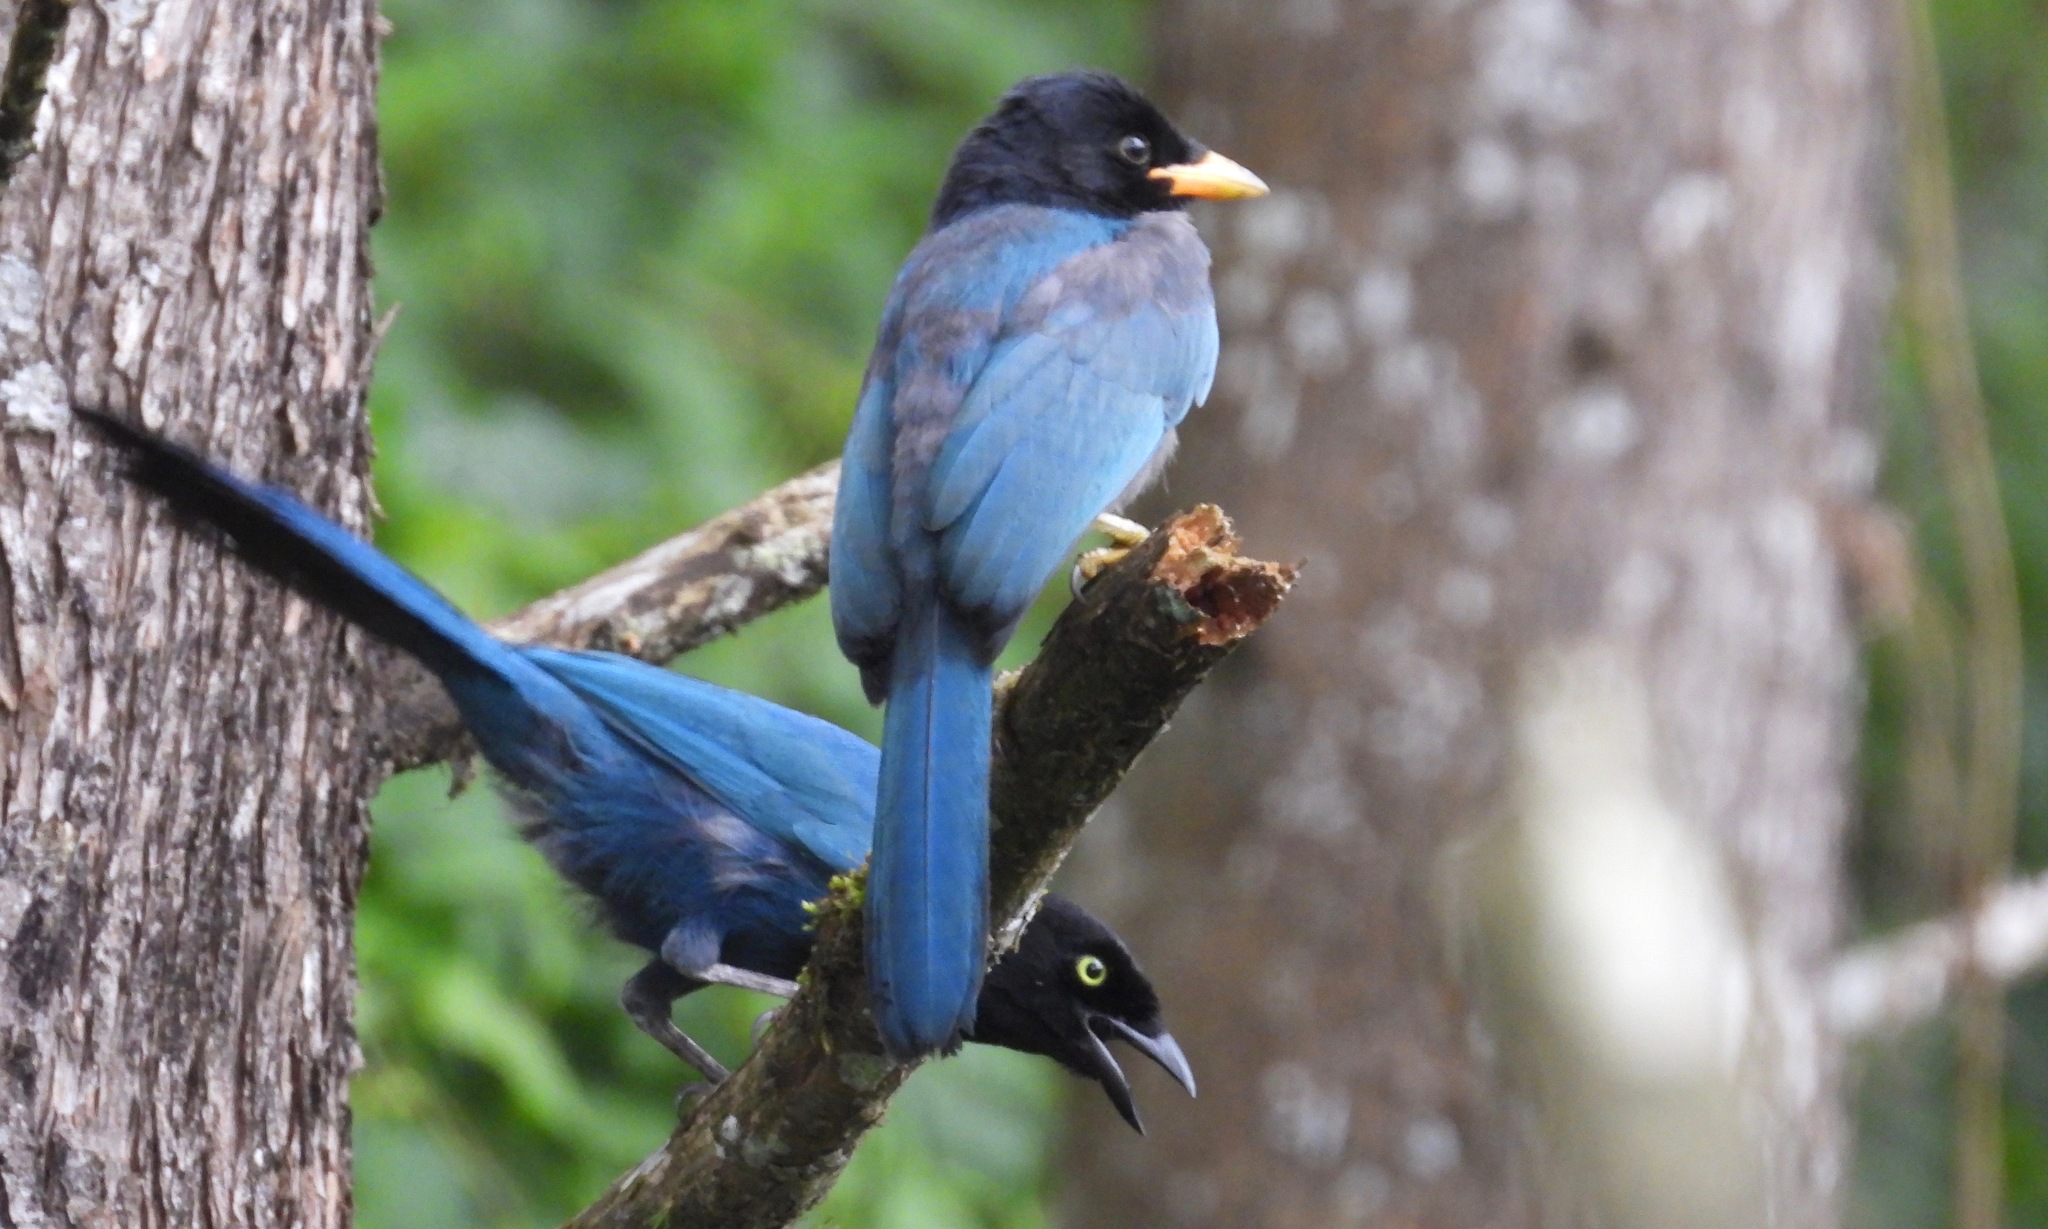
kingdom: Animalia
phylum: Chordata
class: Aves
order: Passeriformes
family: Corvidae
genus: Cyanocorax
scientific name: Cyanocorax melanocyaneus
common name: Bushy-crested jay
